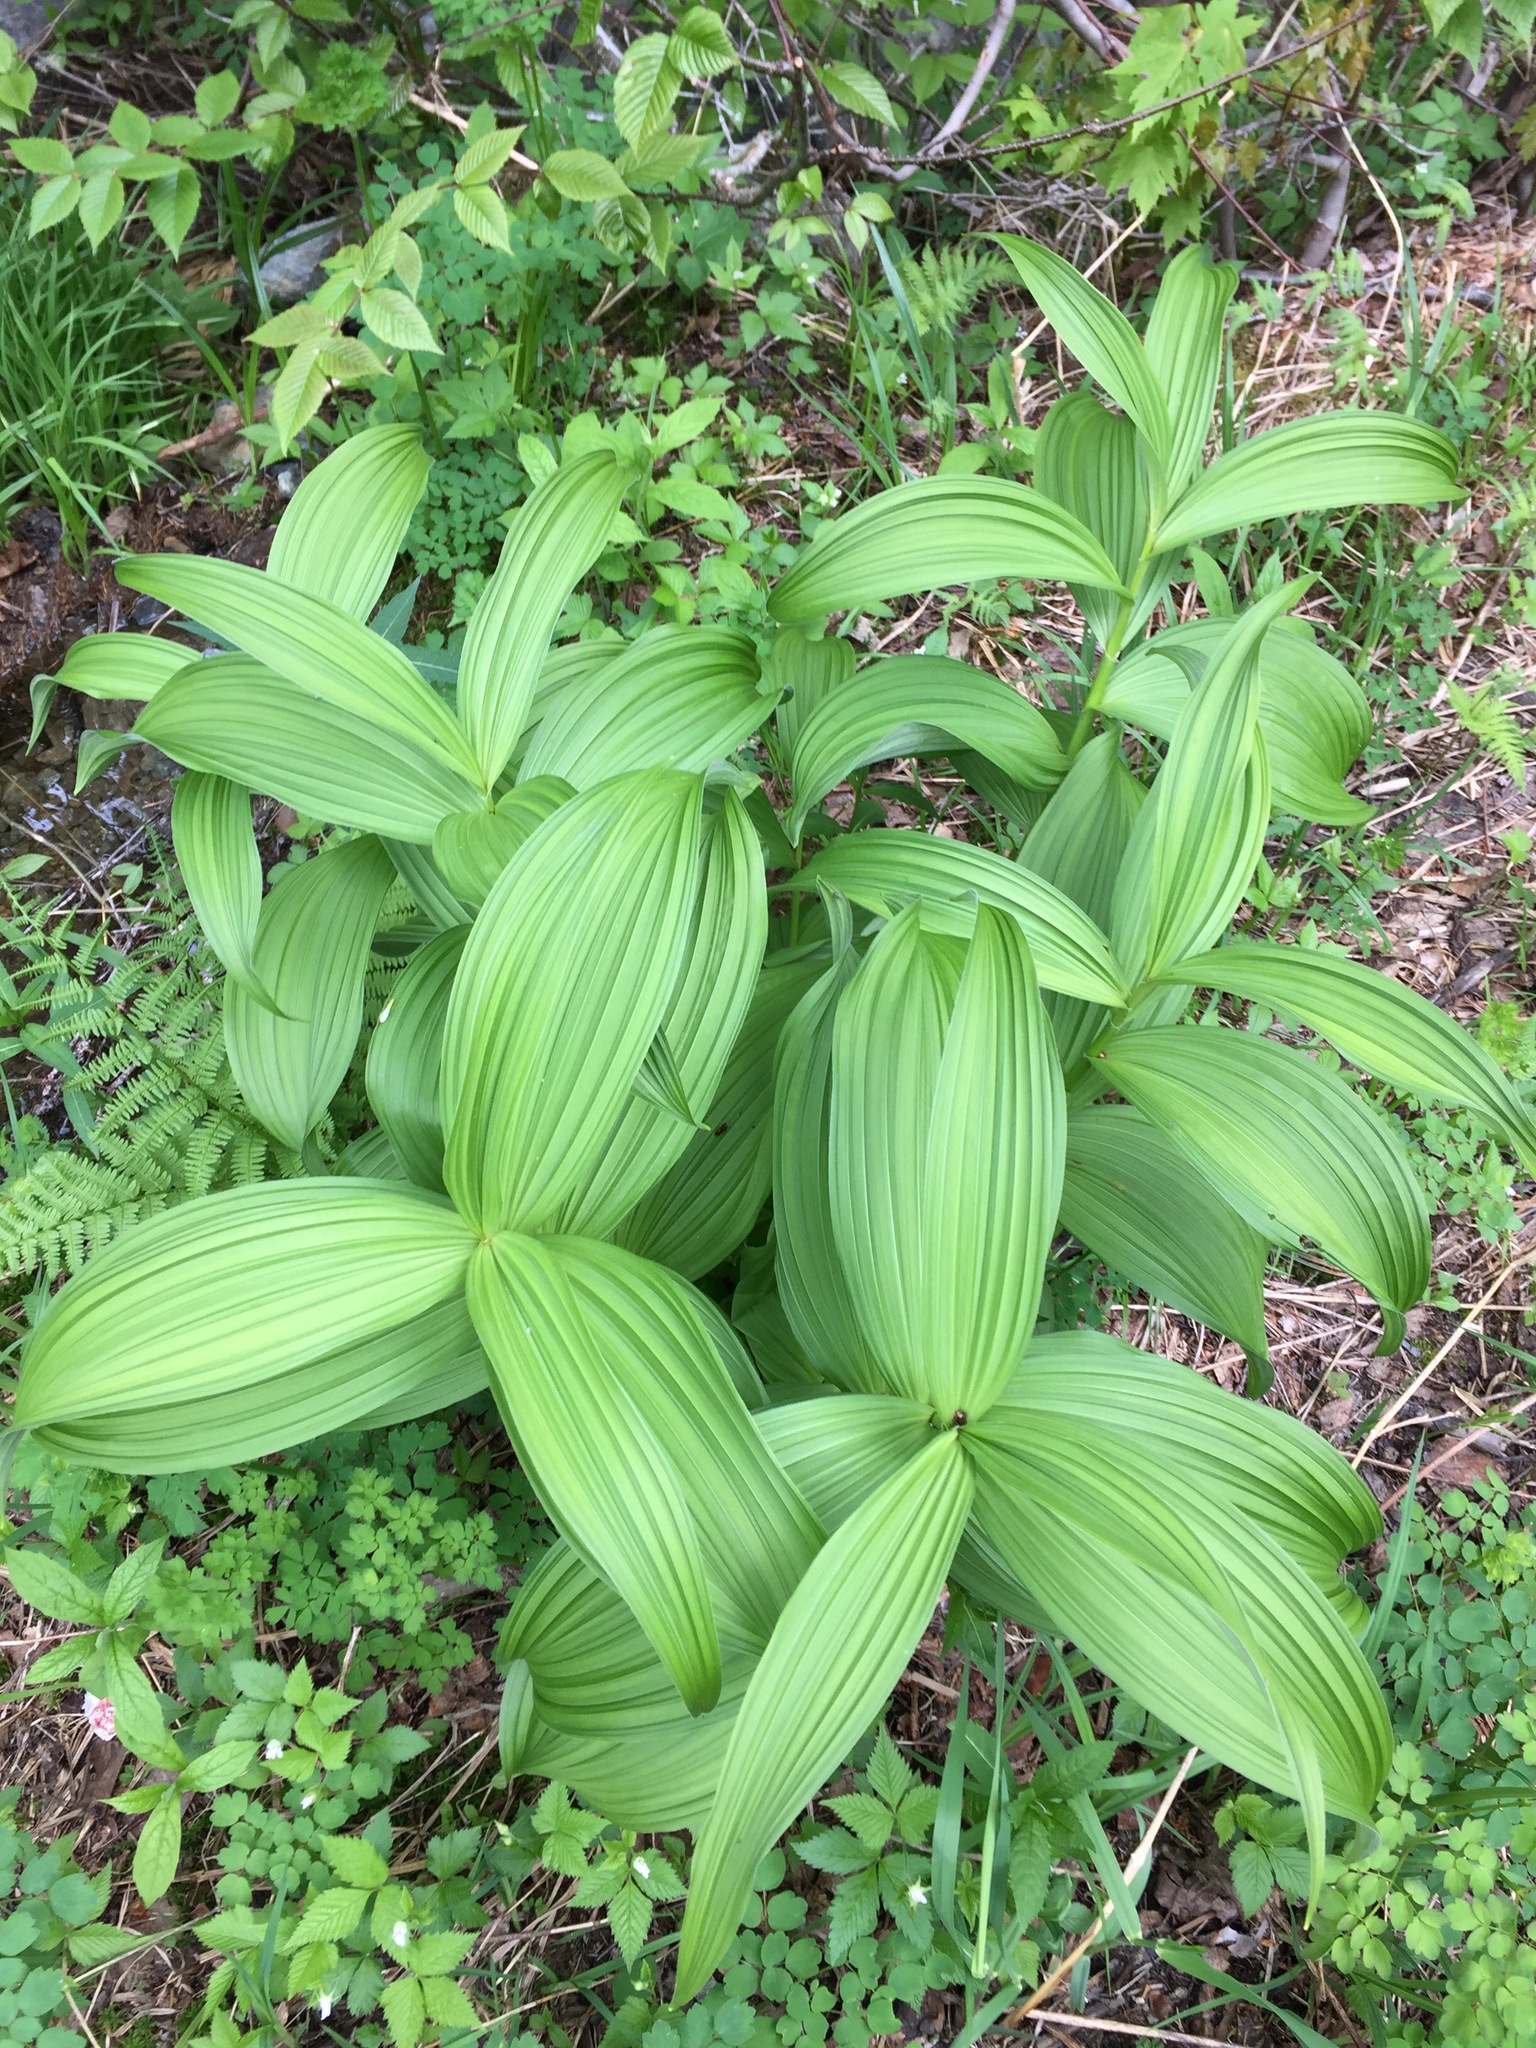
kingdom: Plantae
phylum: Tracheophyta
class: Liliopsida
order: Liliales
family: Melanthiaceae
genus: Veratrum
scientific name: Veratrum viride
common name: American false hellebore
